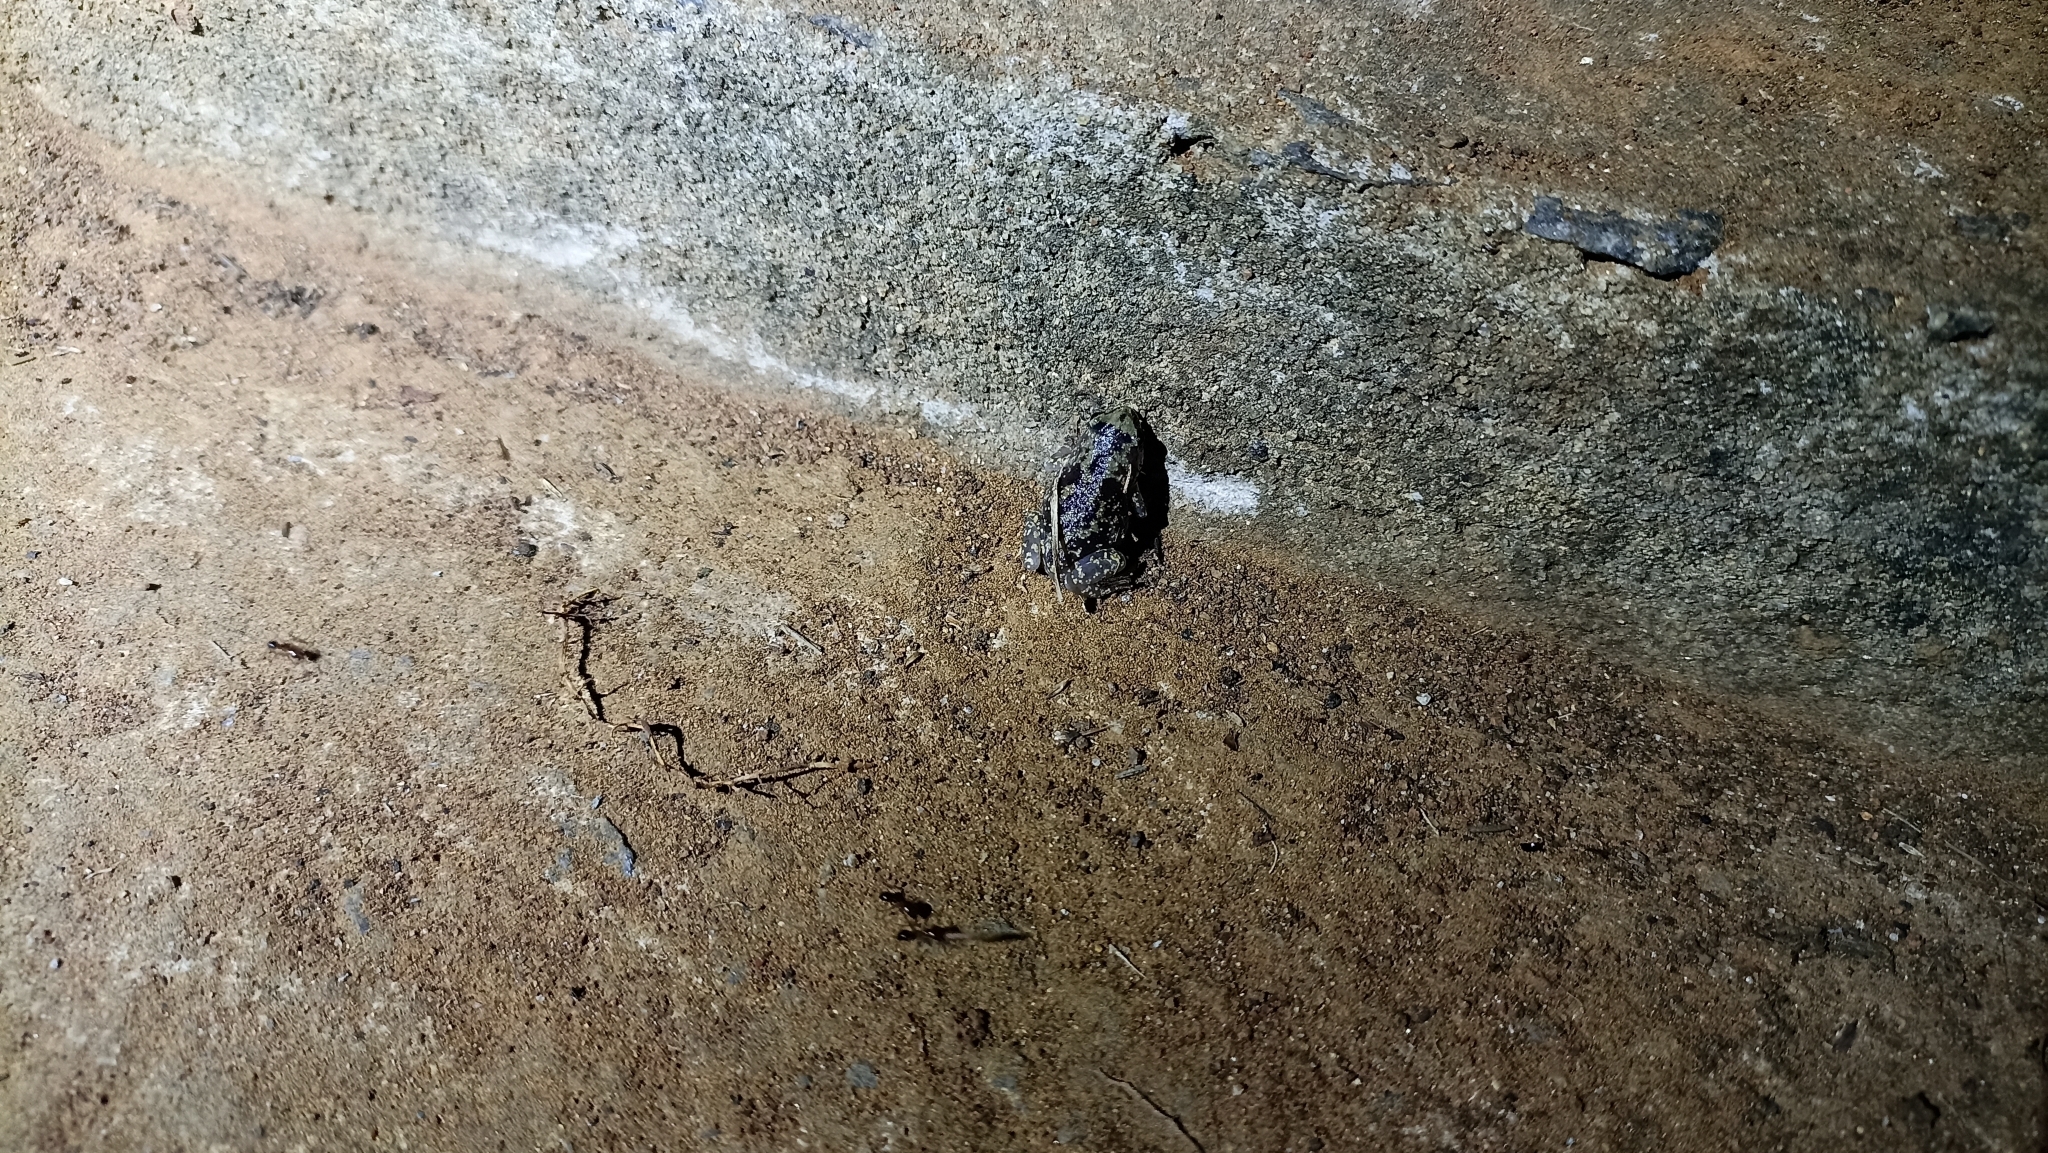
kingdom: Animalia
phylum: Chordata
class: Amphibia
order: Anura
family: Bufonidae
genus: Duttaphrynus
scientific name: Duttaphrynus melanostictus
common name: Common sunda toad
